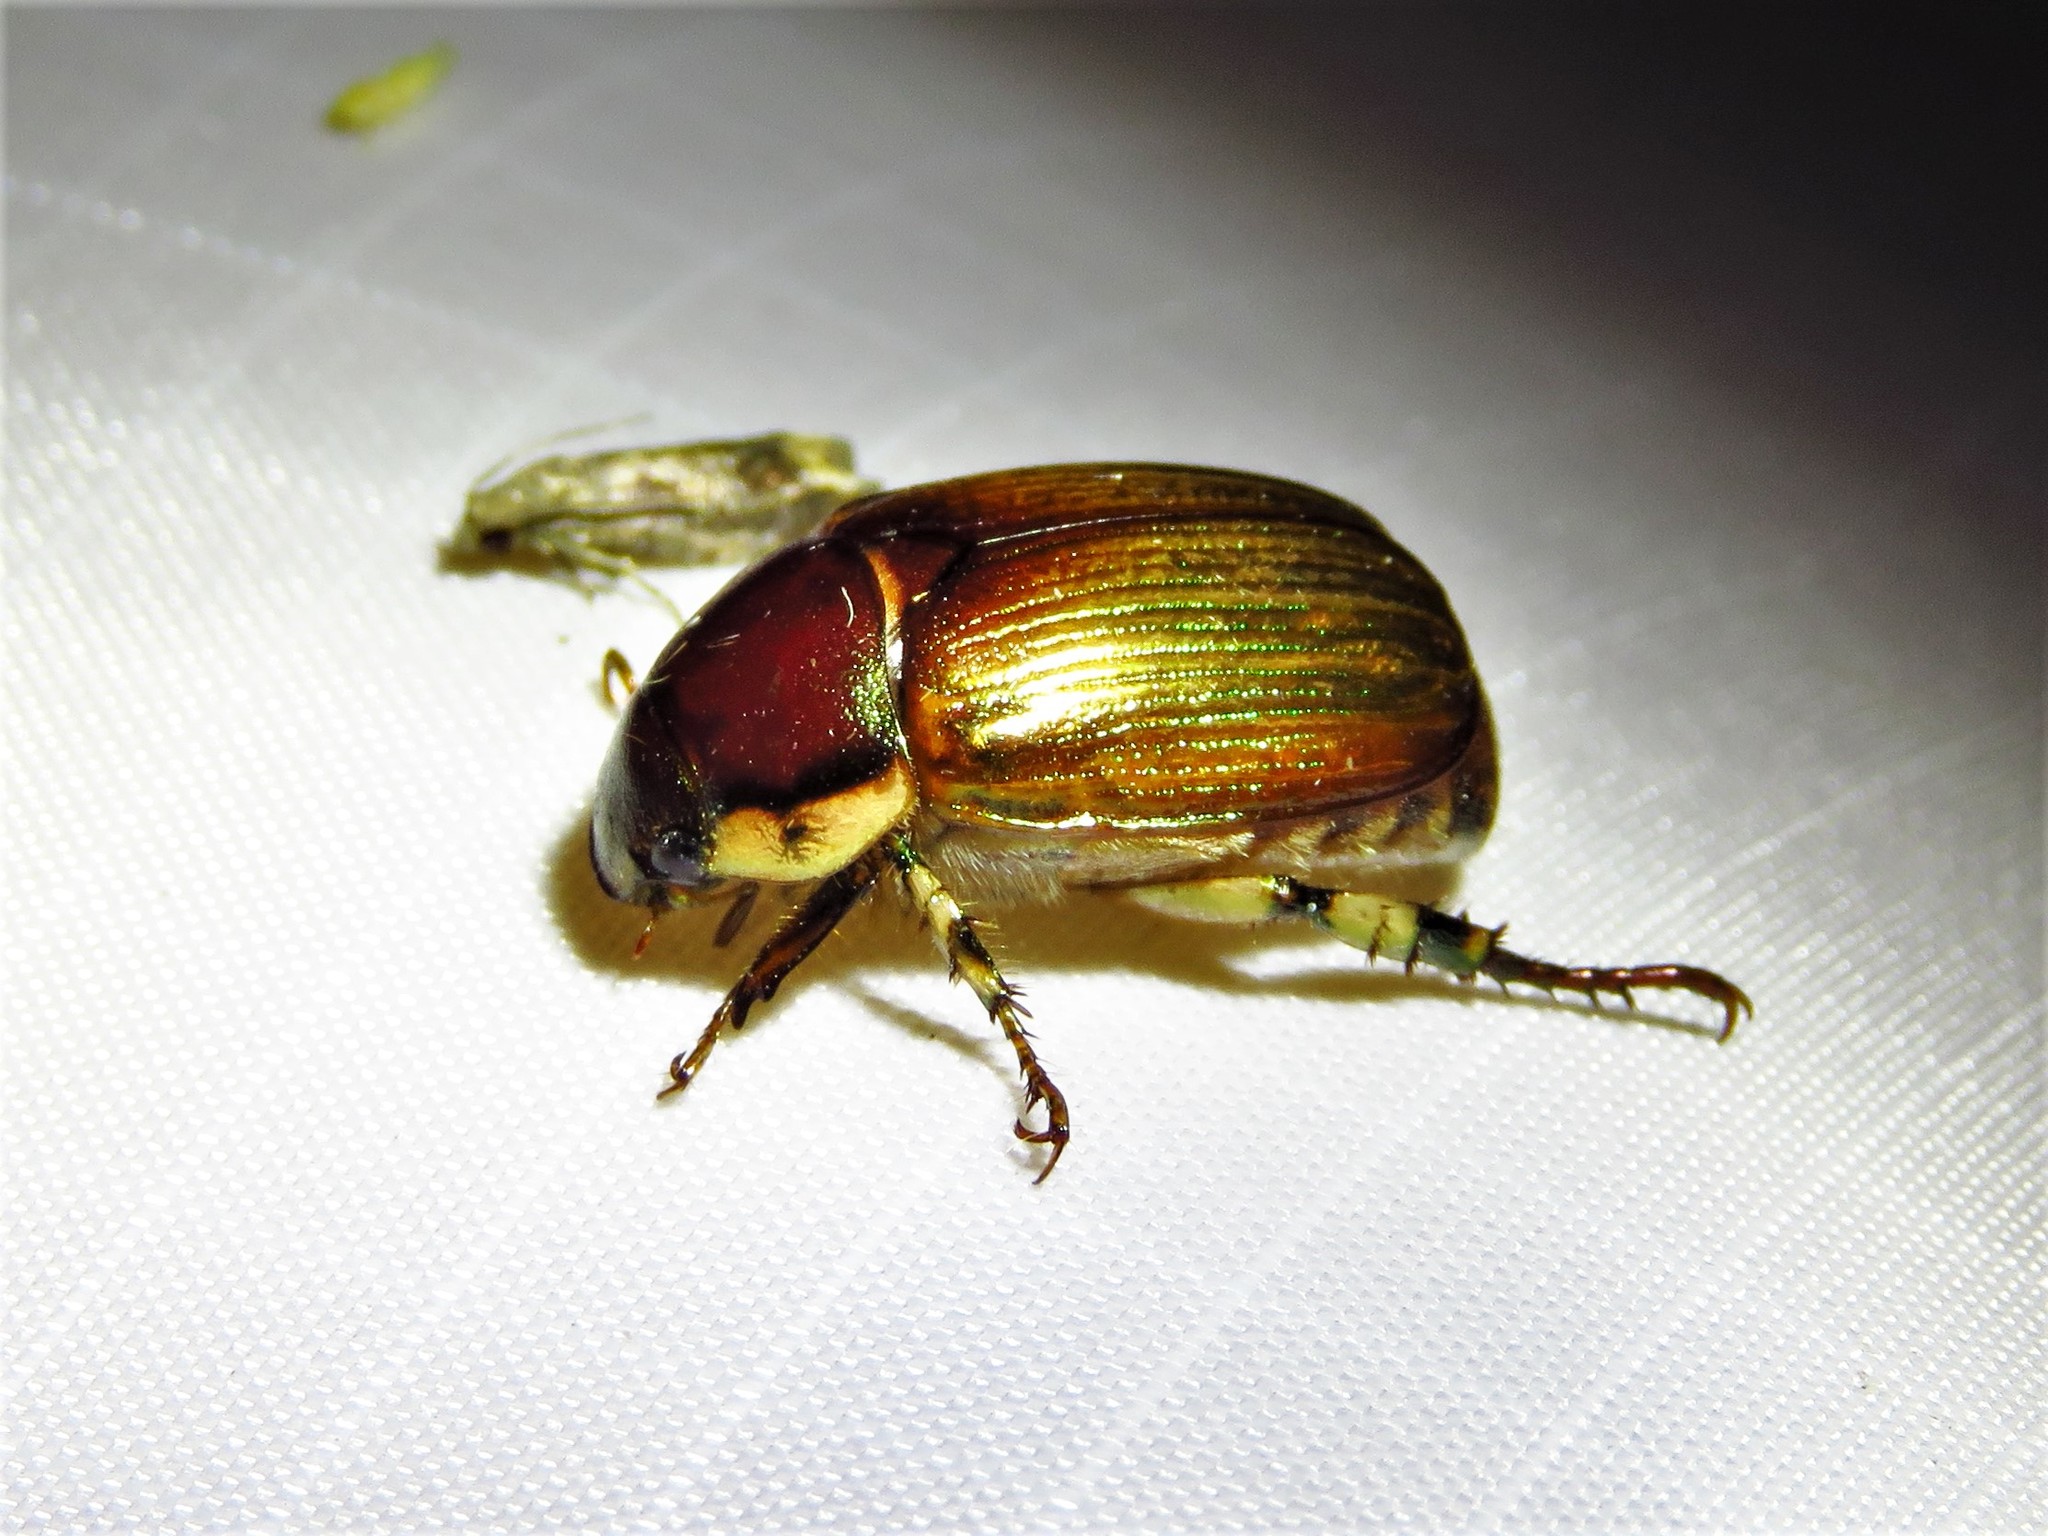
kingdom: Animalia
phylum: Arthropoda
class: Insecta
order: Coleoptera
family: Scarabaeidae
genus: Callistethus
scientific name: Callistethus marginatus
